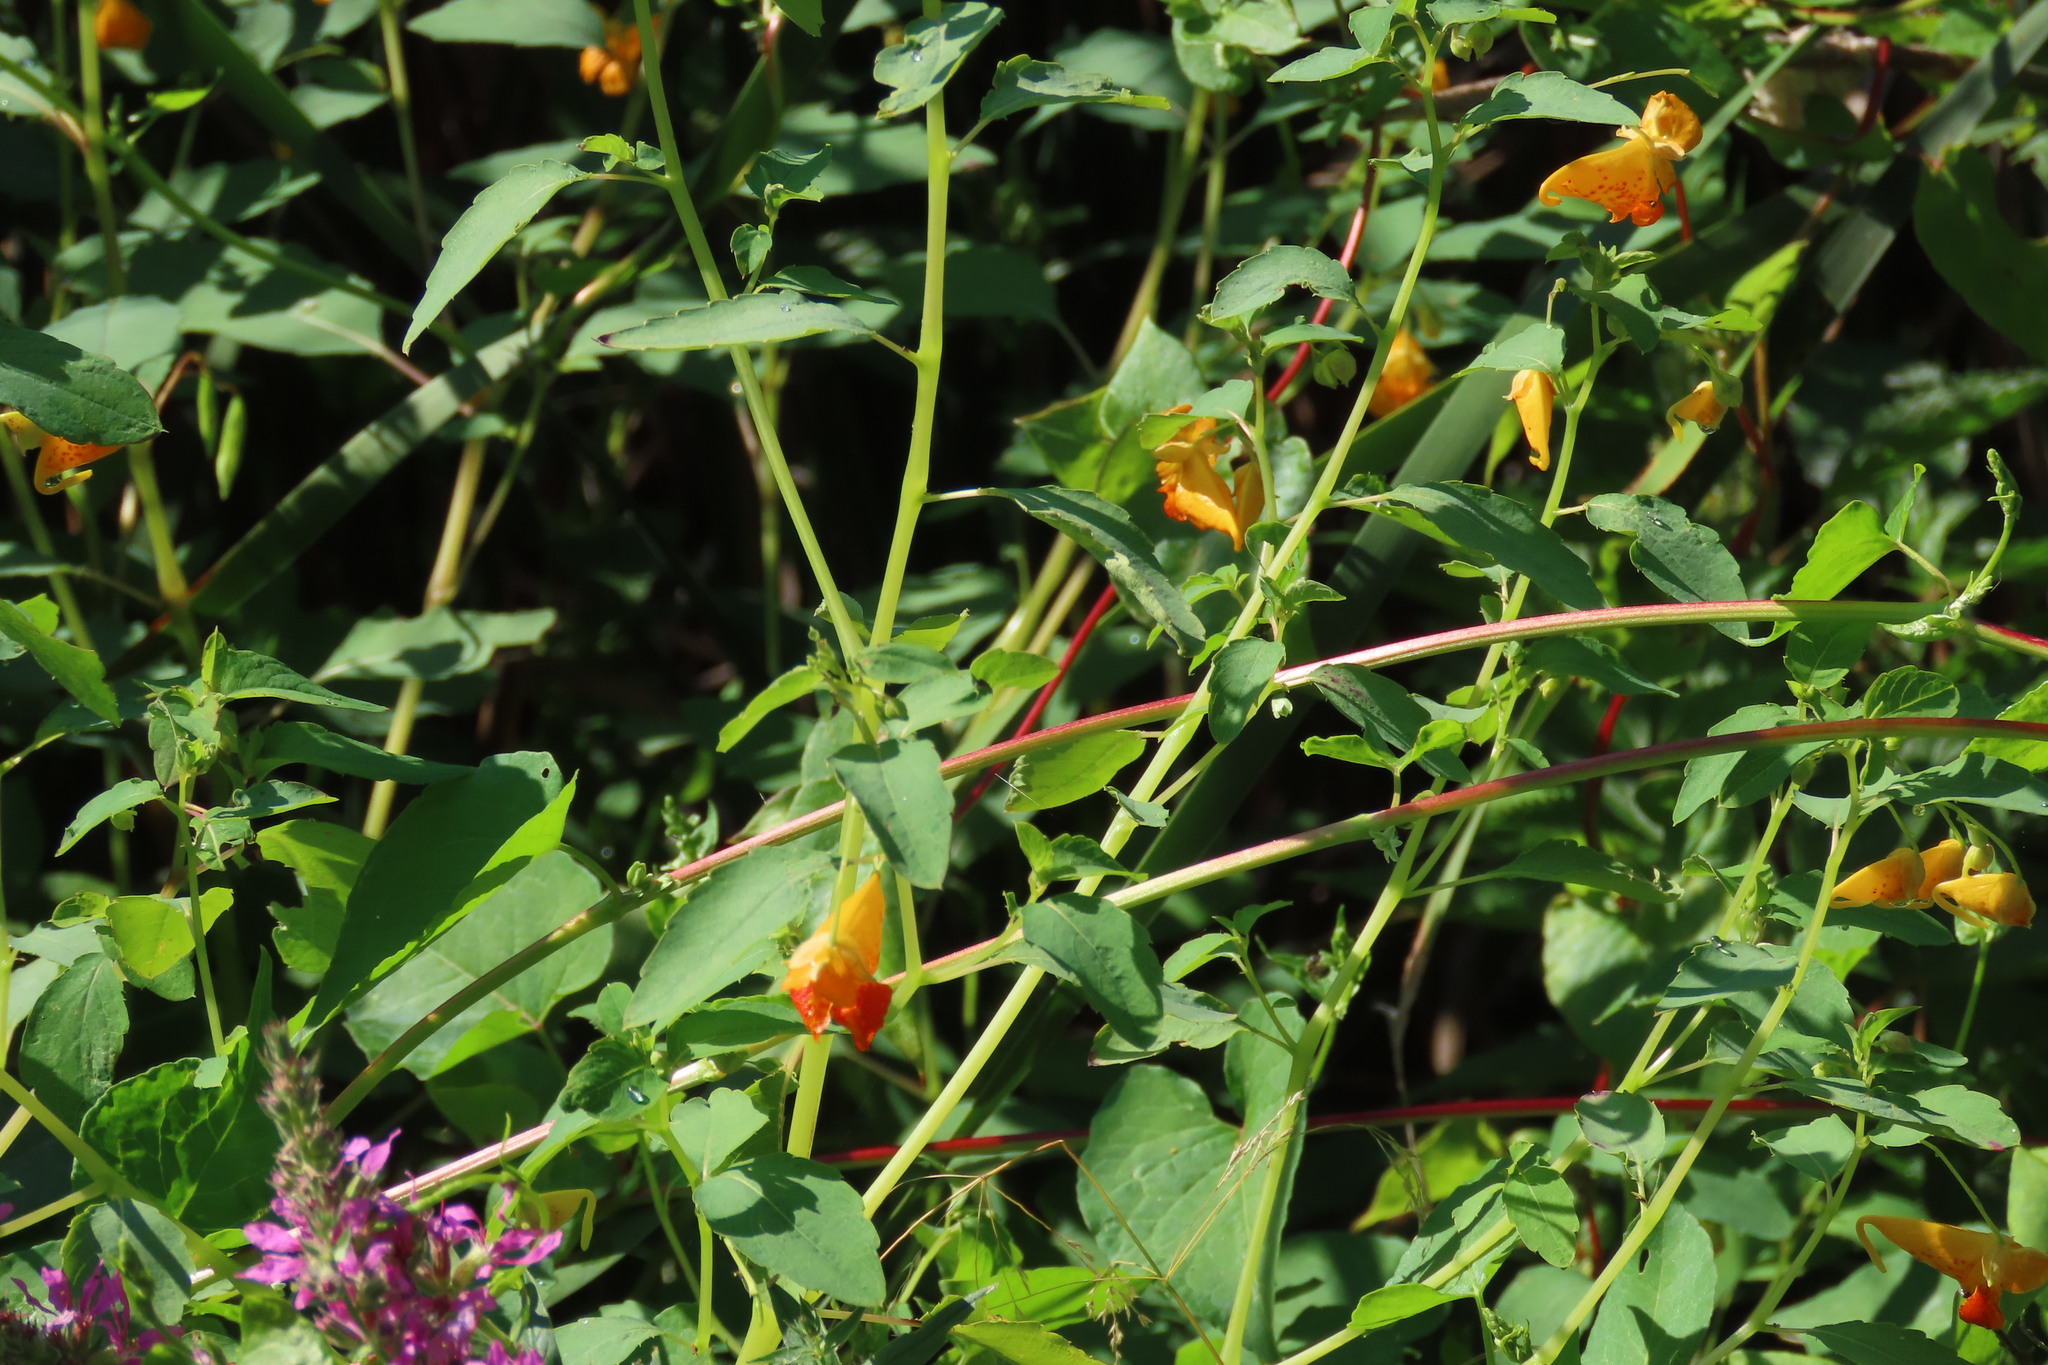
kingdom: Plantae
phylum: Tracheophyta
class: Magnoliopsida
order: Ericales
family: Balsaminaceae
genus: Impatiens
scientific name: Impatiens capensis
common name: Orange balsam
